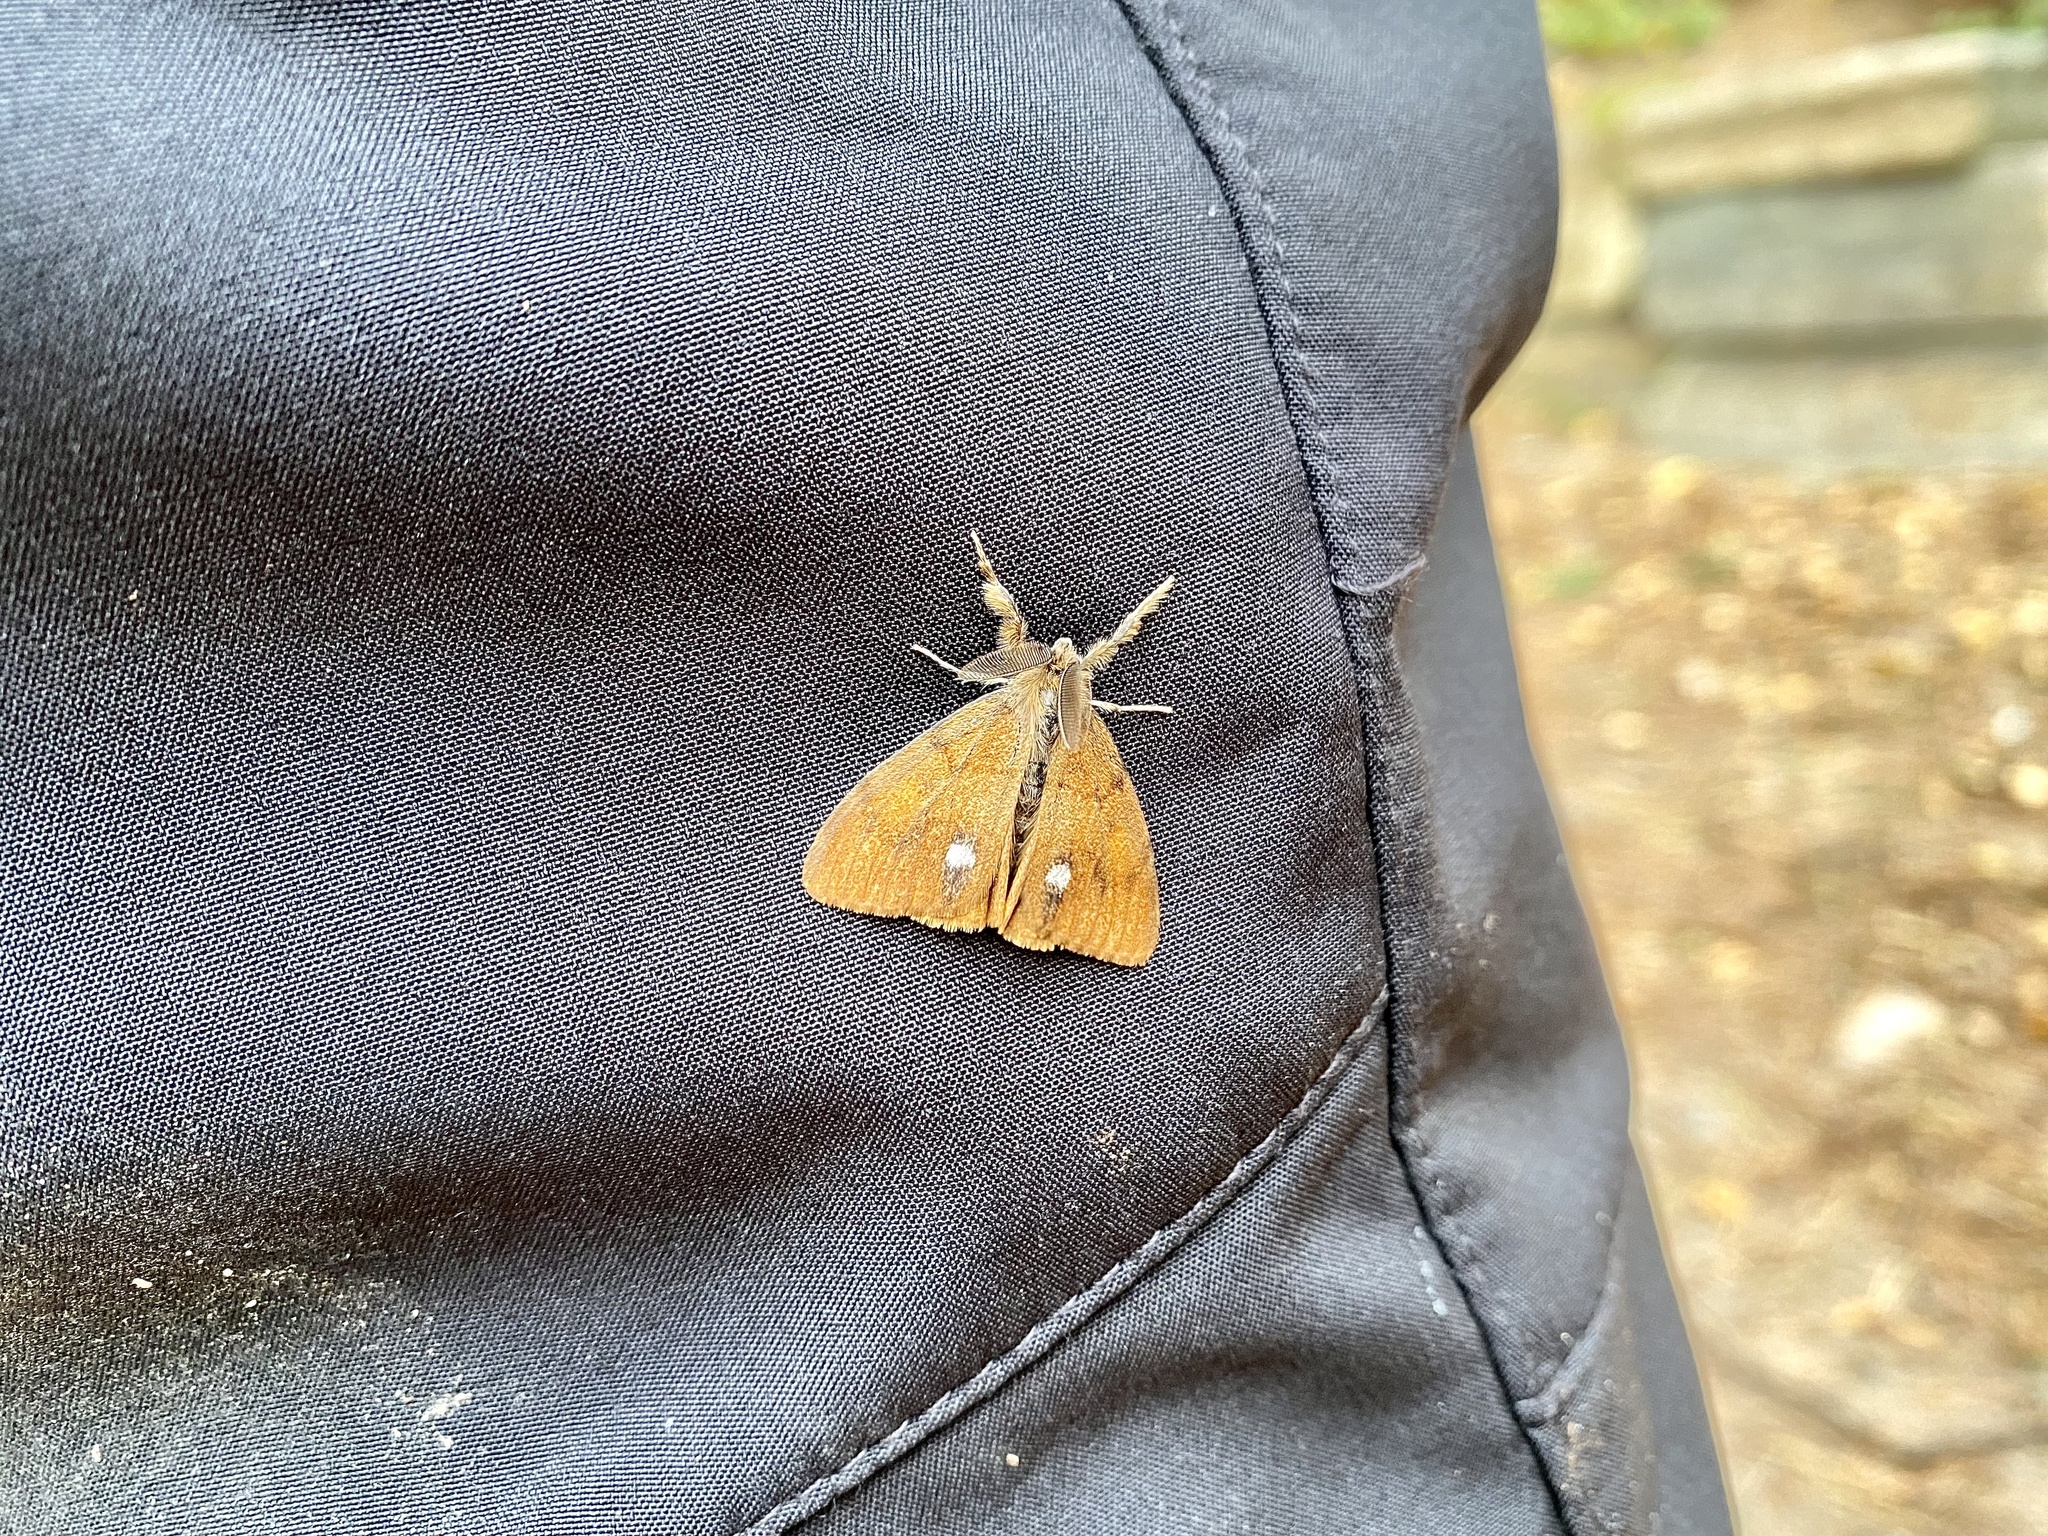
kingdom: Animalia
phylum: Arthropoda
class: Insecta
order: Lepidoptera
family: Erebidae
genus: Orgyia
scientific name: Orgyia antiqua
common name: Vapourer
